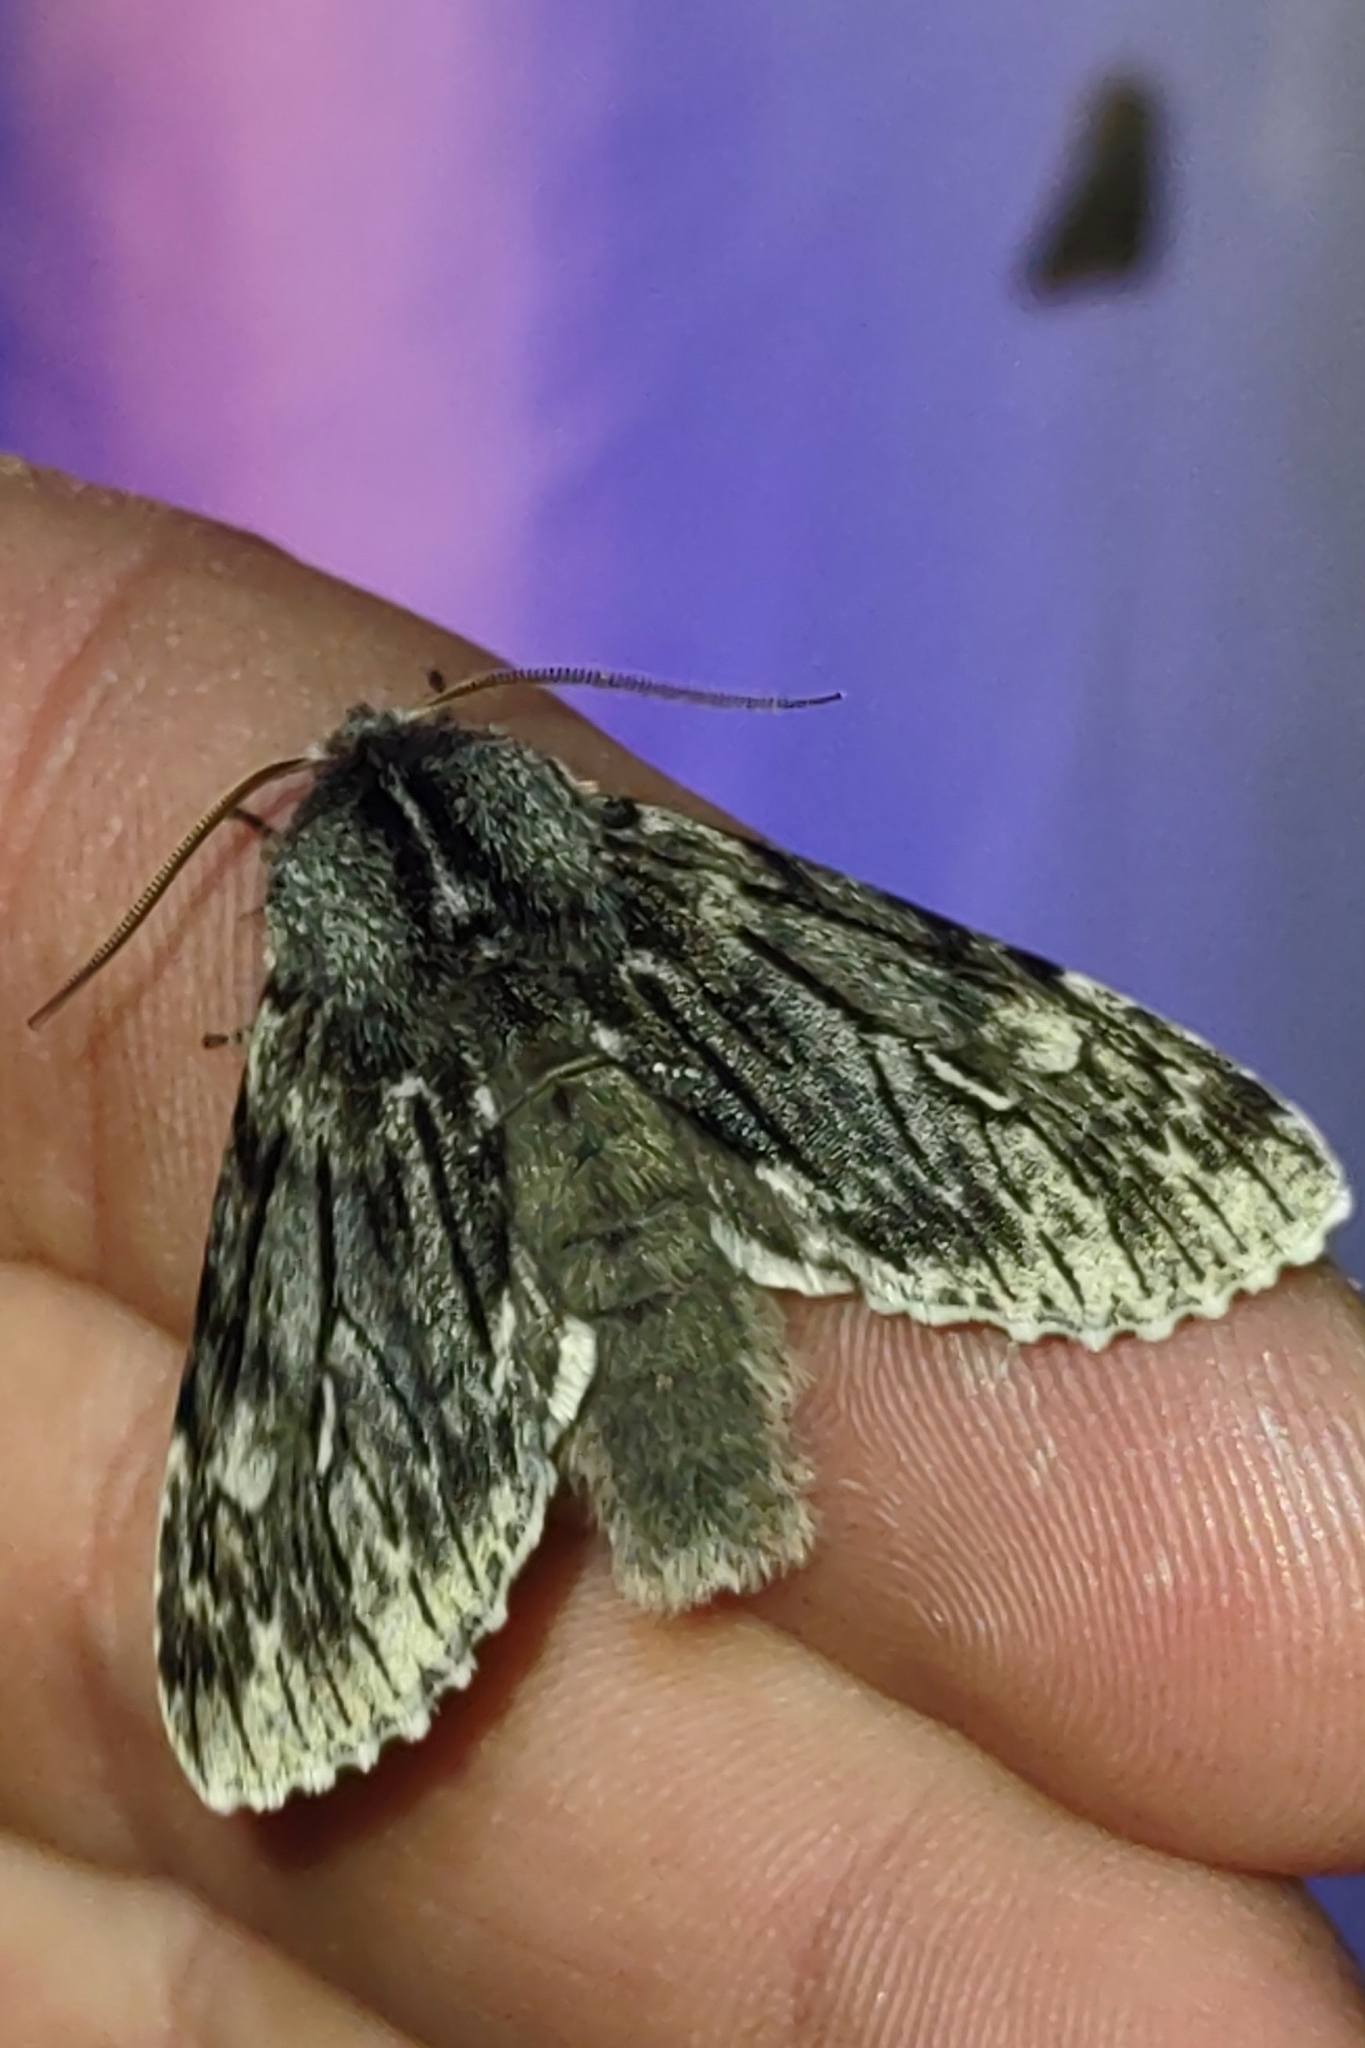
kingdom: Animalia
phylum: Arthropoda
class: Insecta
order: Lepidoptera
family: Noctuidae
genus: Brachionycha
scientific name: Brachionycha nubeculosa
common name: Rannoch sprawler
